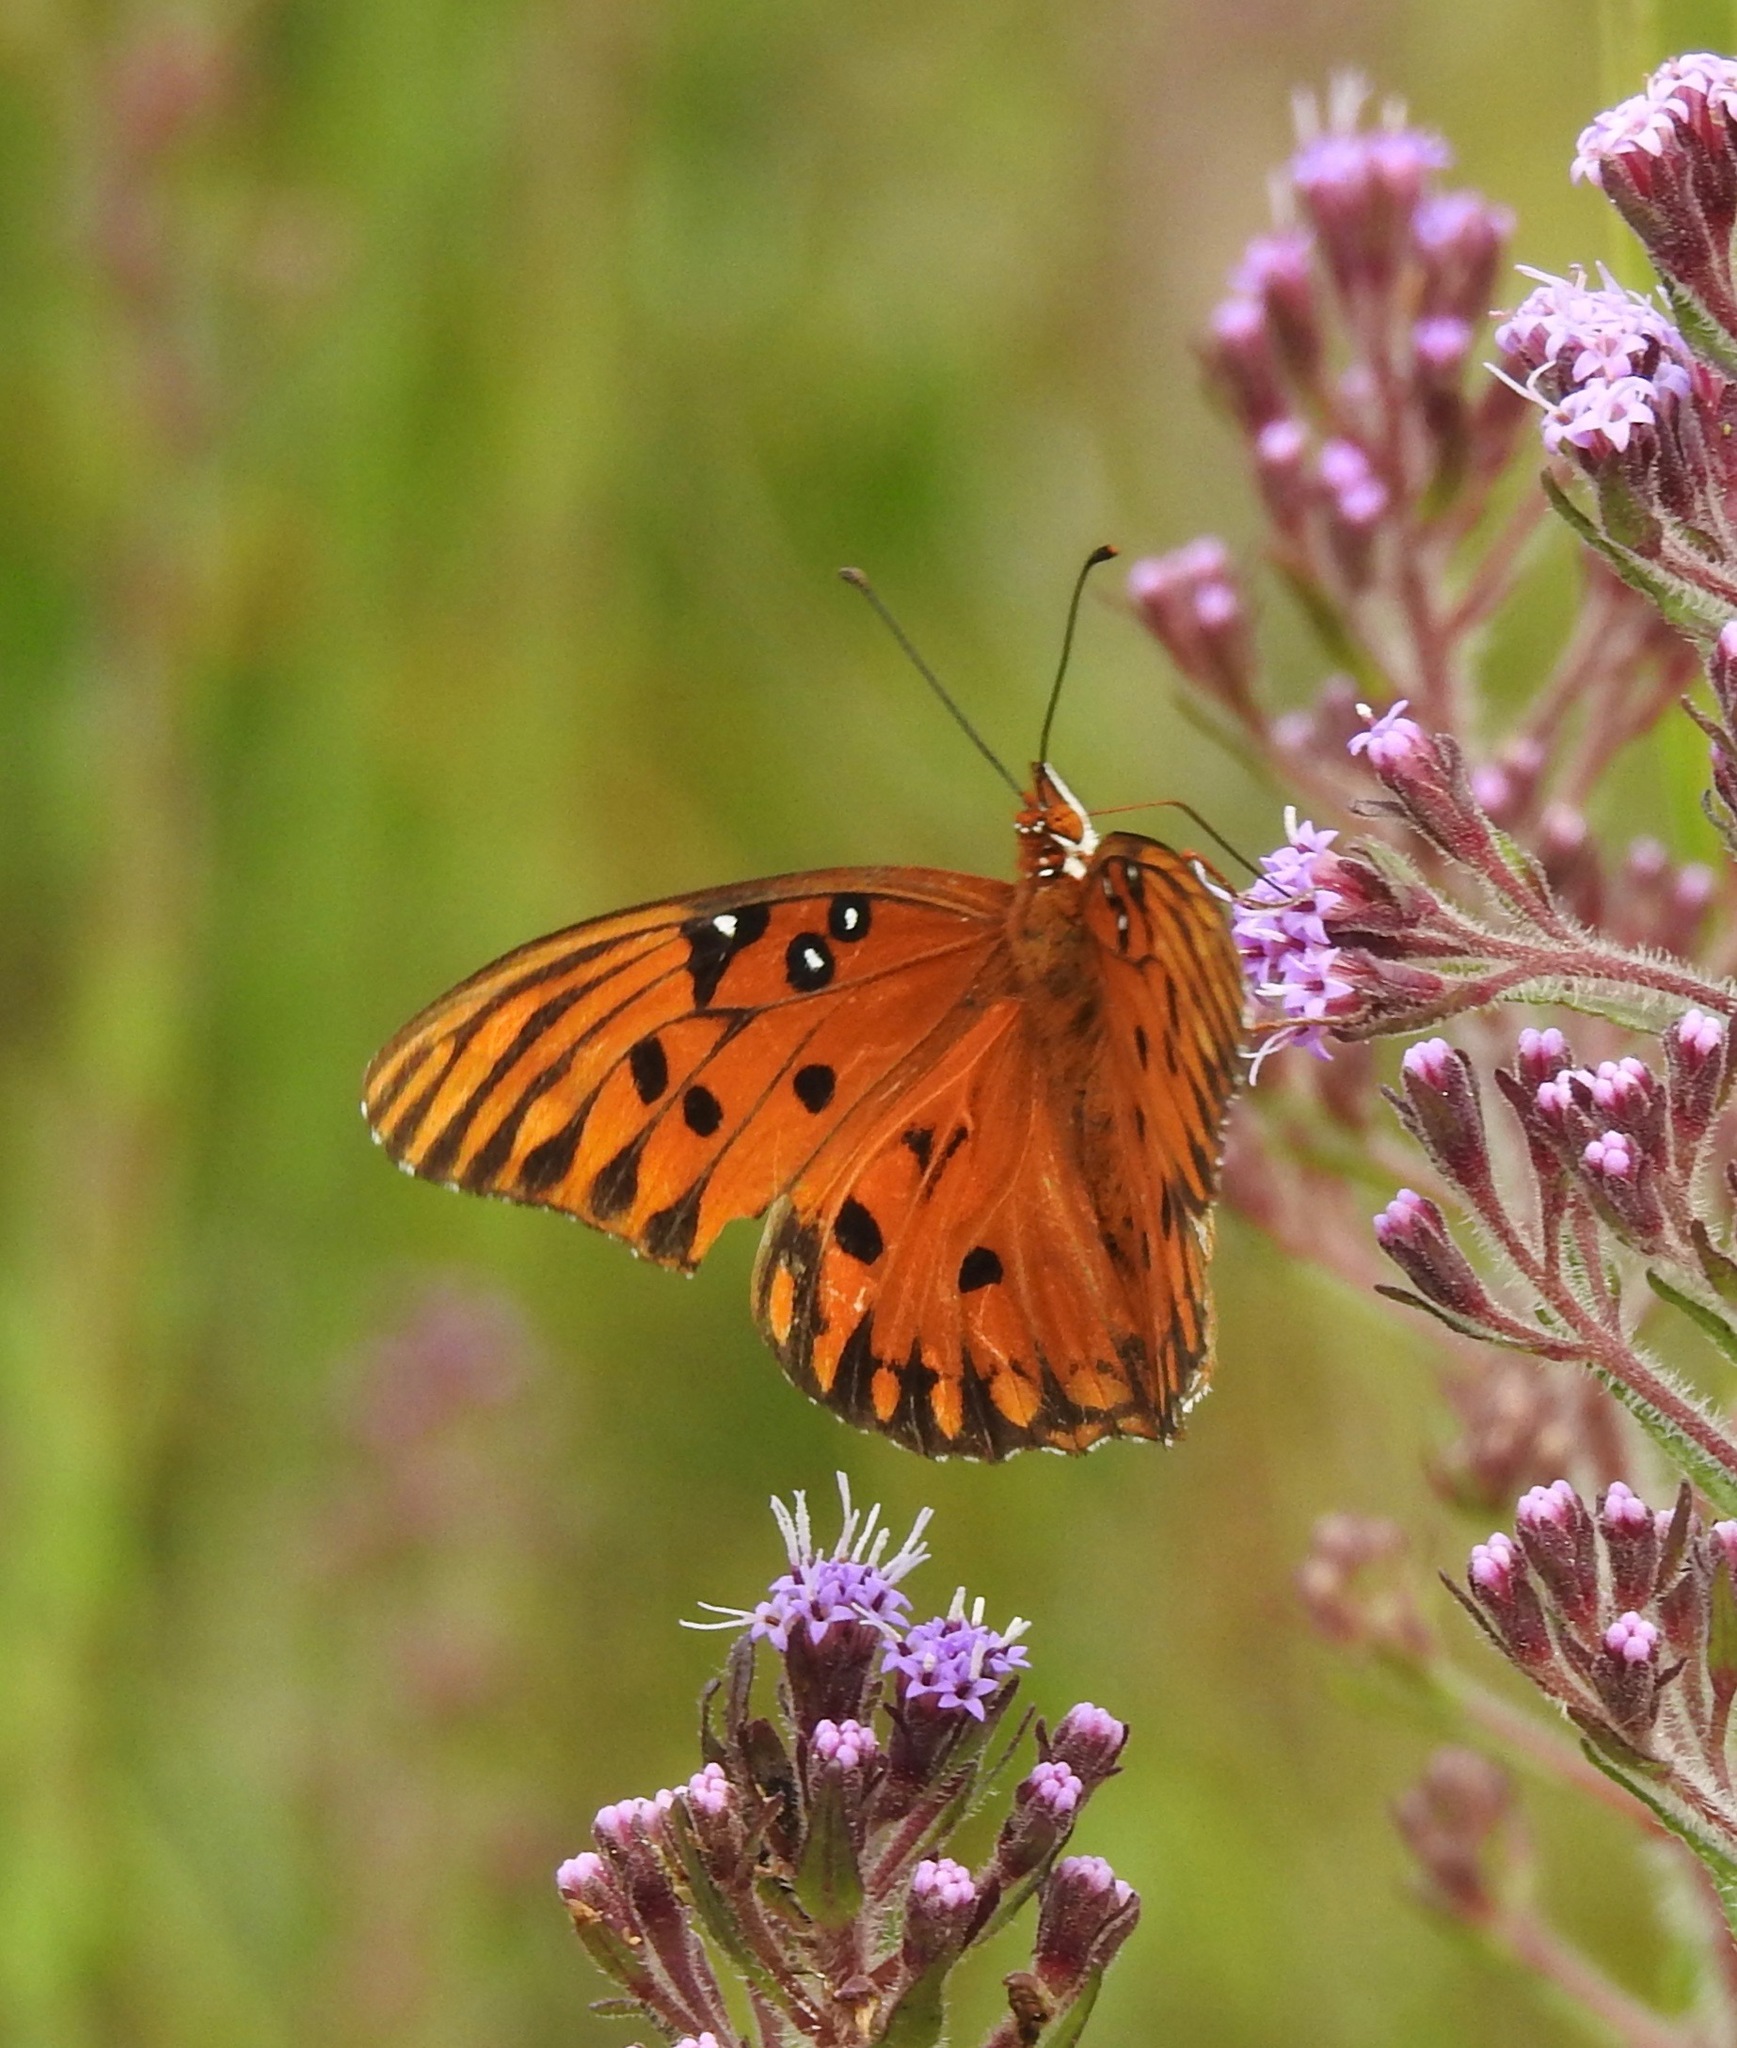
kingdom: Animalia
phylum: Arthropoda
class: Insecta
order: Lepidoptera
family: Nymphalidae
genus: Dione
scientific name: Dione vanillae
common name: Gulf fritillary
